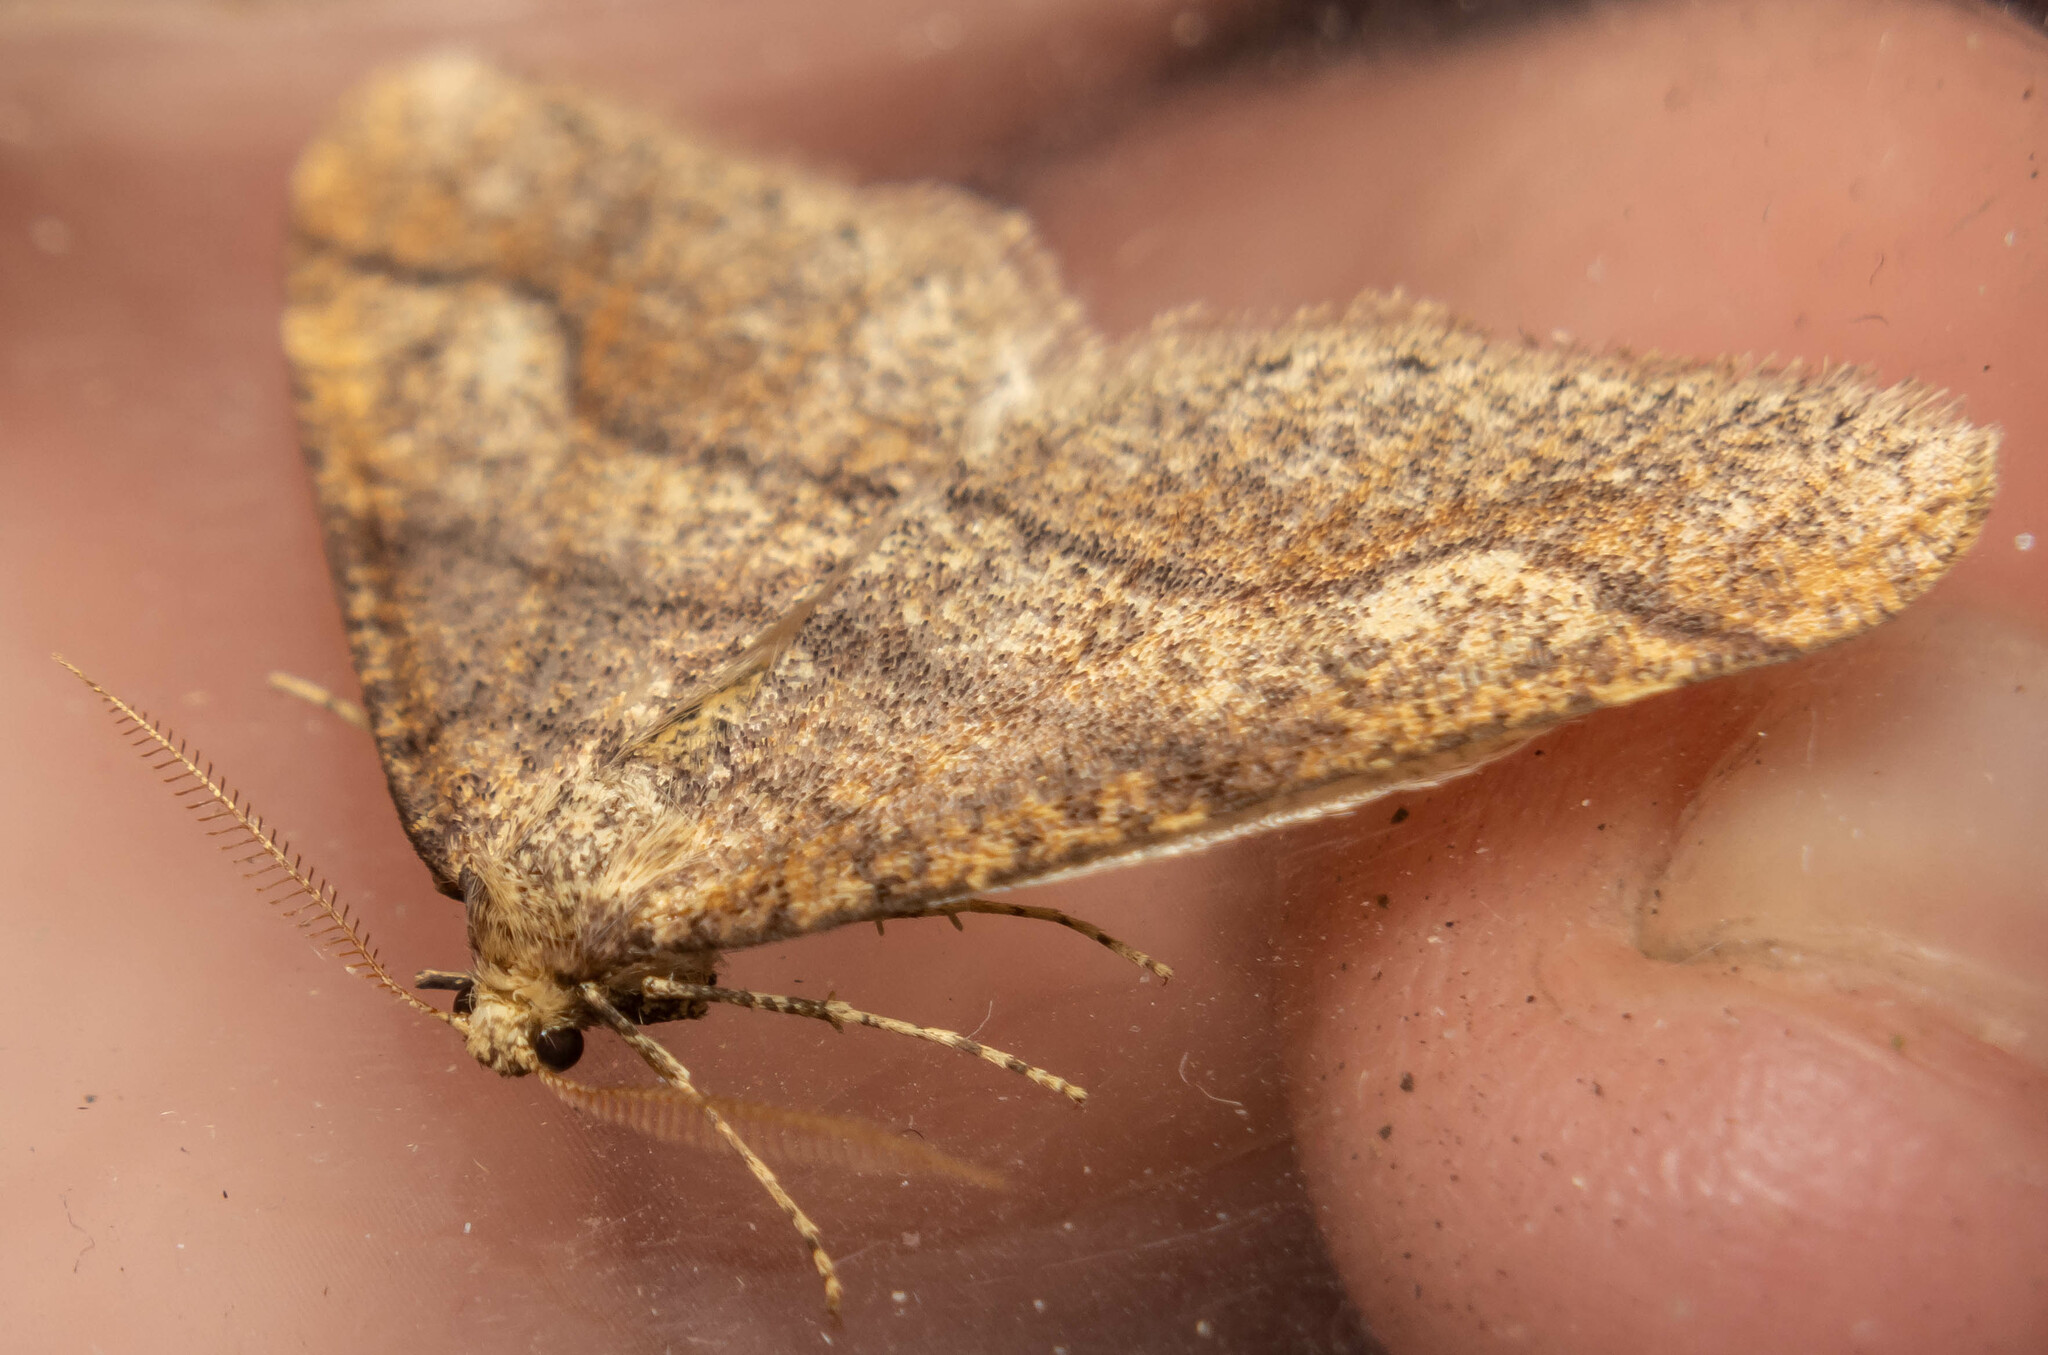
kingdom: Animalia
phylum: Arthropoda
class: Insecta
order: Lepidoptera
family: Geometridae
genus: Agriopis
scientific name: Agriopis marginaria
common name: Dotted border
